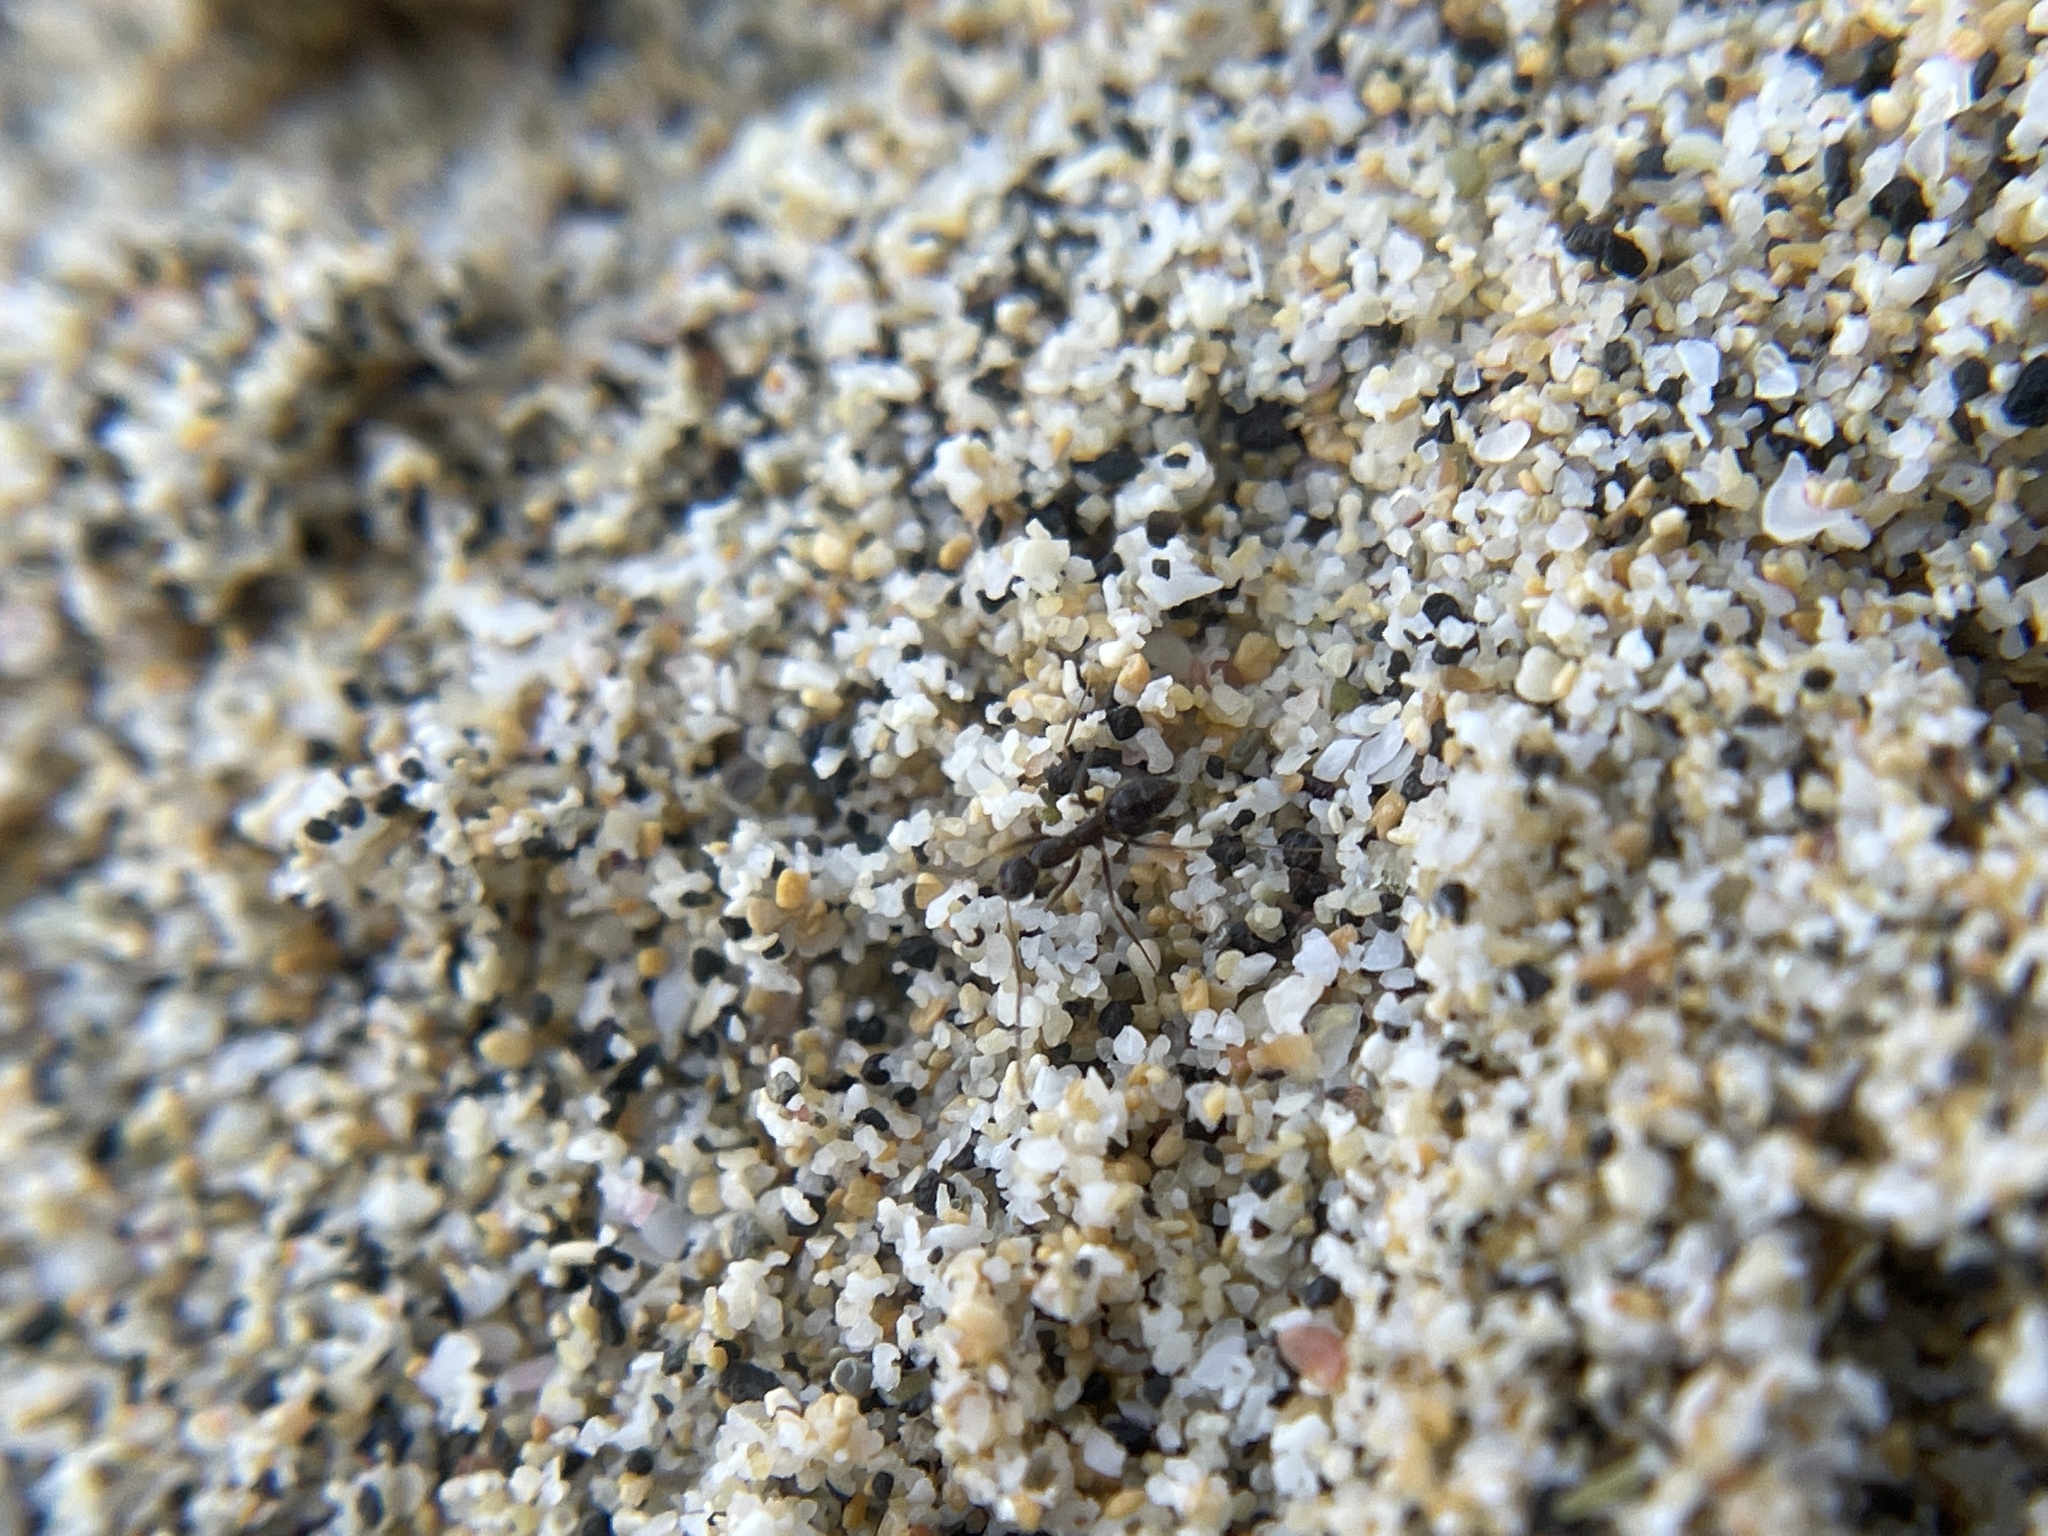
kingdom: Animalia
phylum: Arthropoda
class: Insecta
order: Hymenoptera
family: Formicidae
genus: Paratrechina
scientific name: Paratrechina longicornis
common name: Longhorned crazy ant
